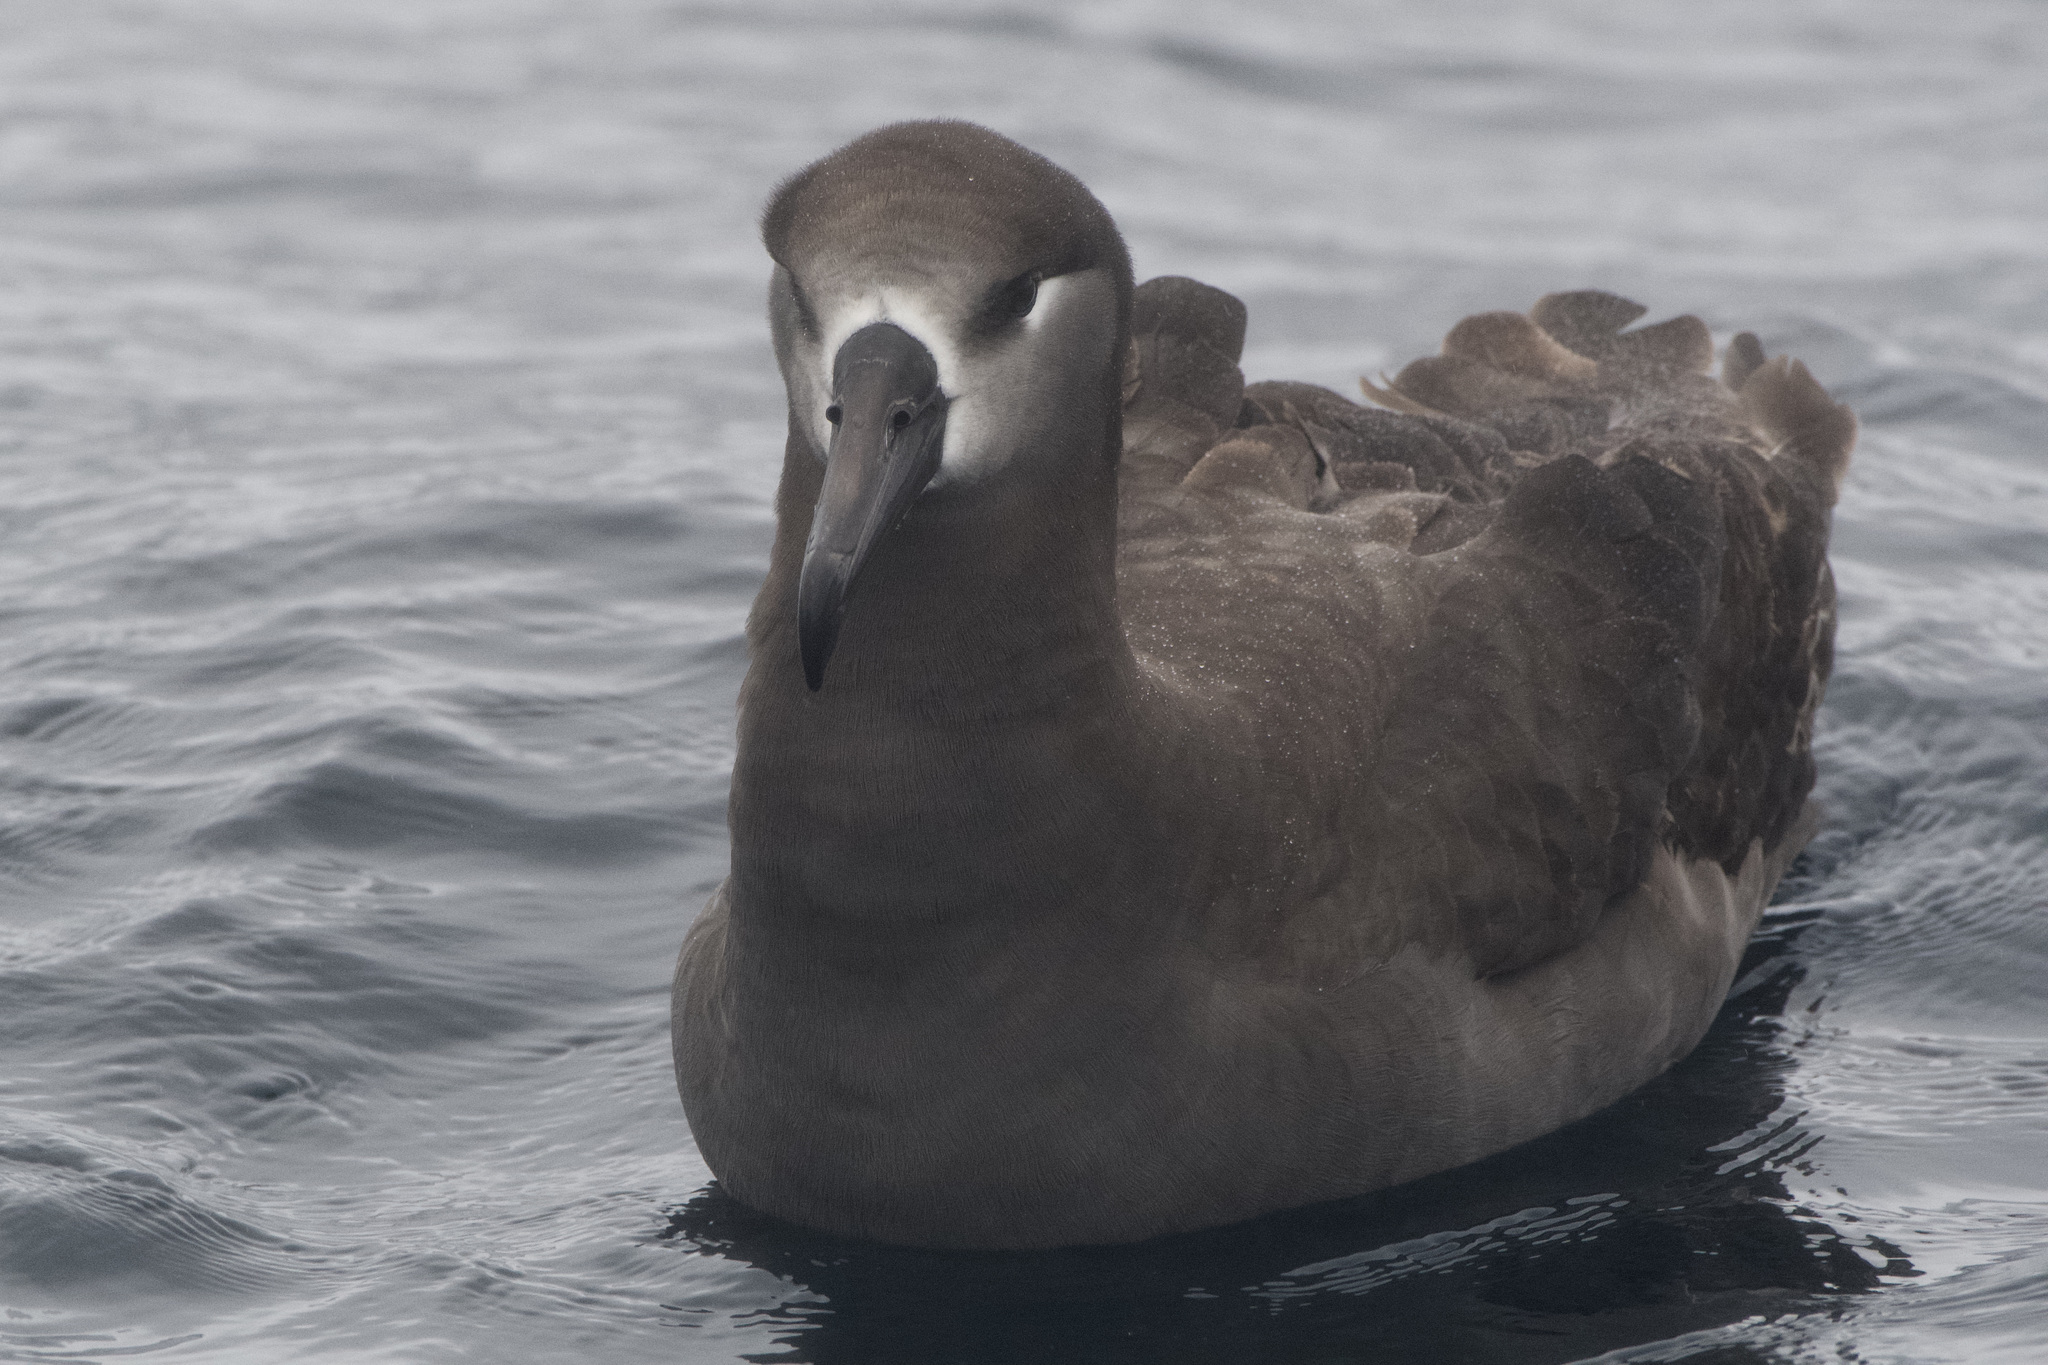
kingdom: Animalia
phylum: Chordata
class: Aves
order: Procellariiformes
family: Diomedeidae
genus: Phoebastria
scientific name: Phoebastria nigripes
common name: Black-footed albatross
